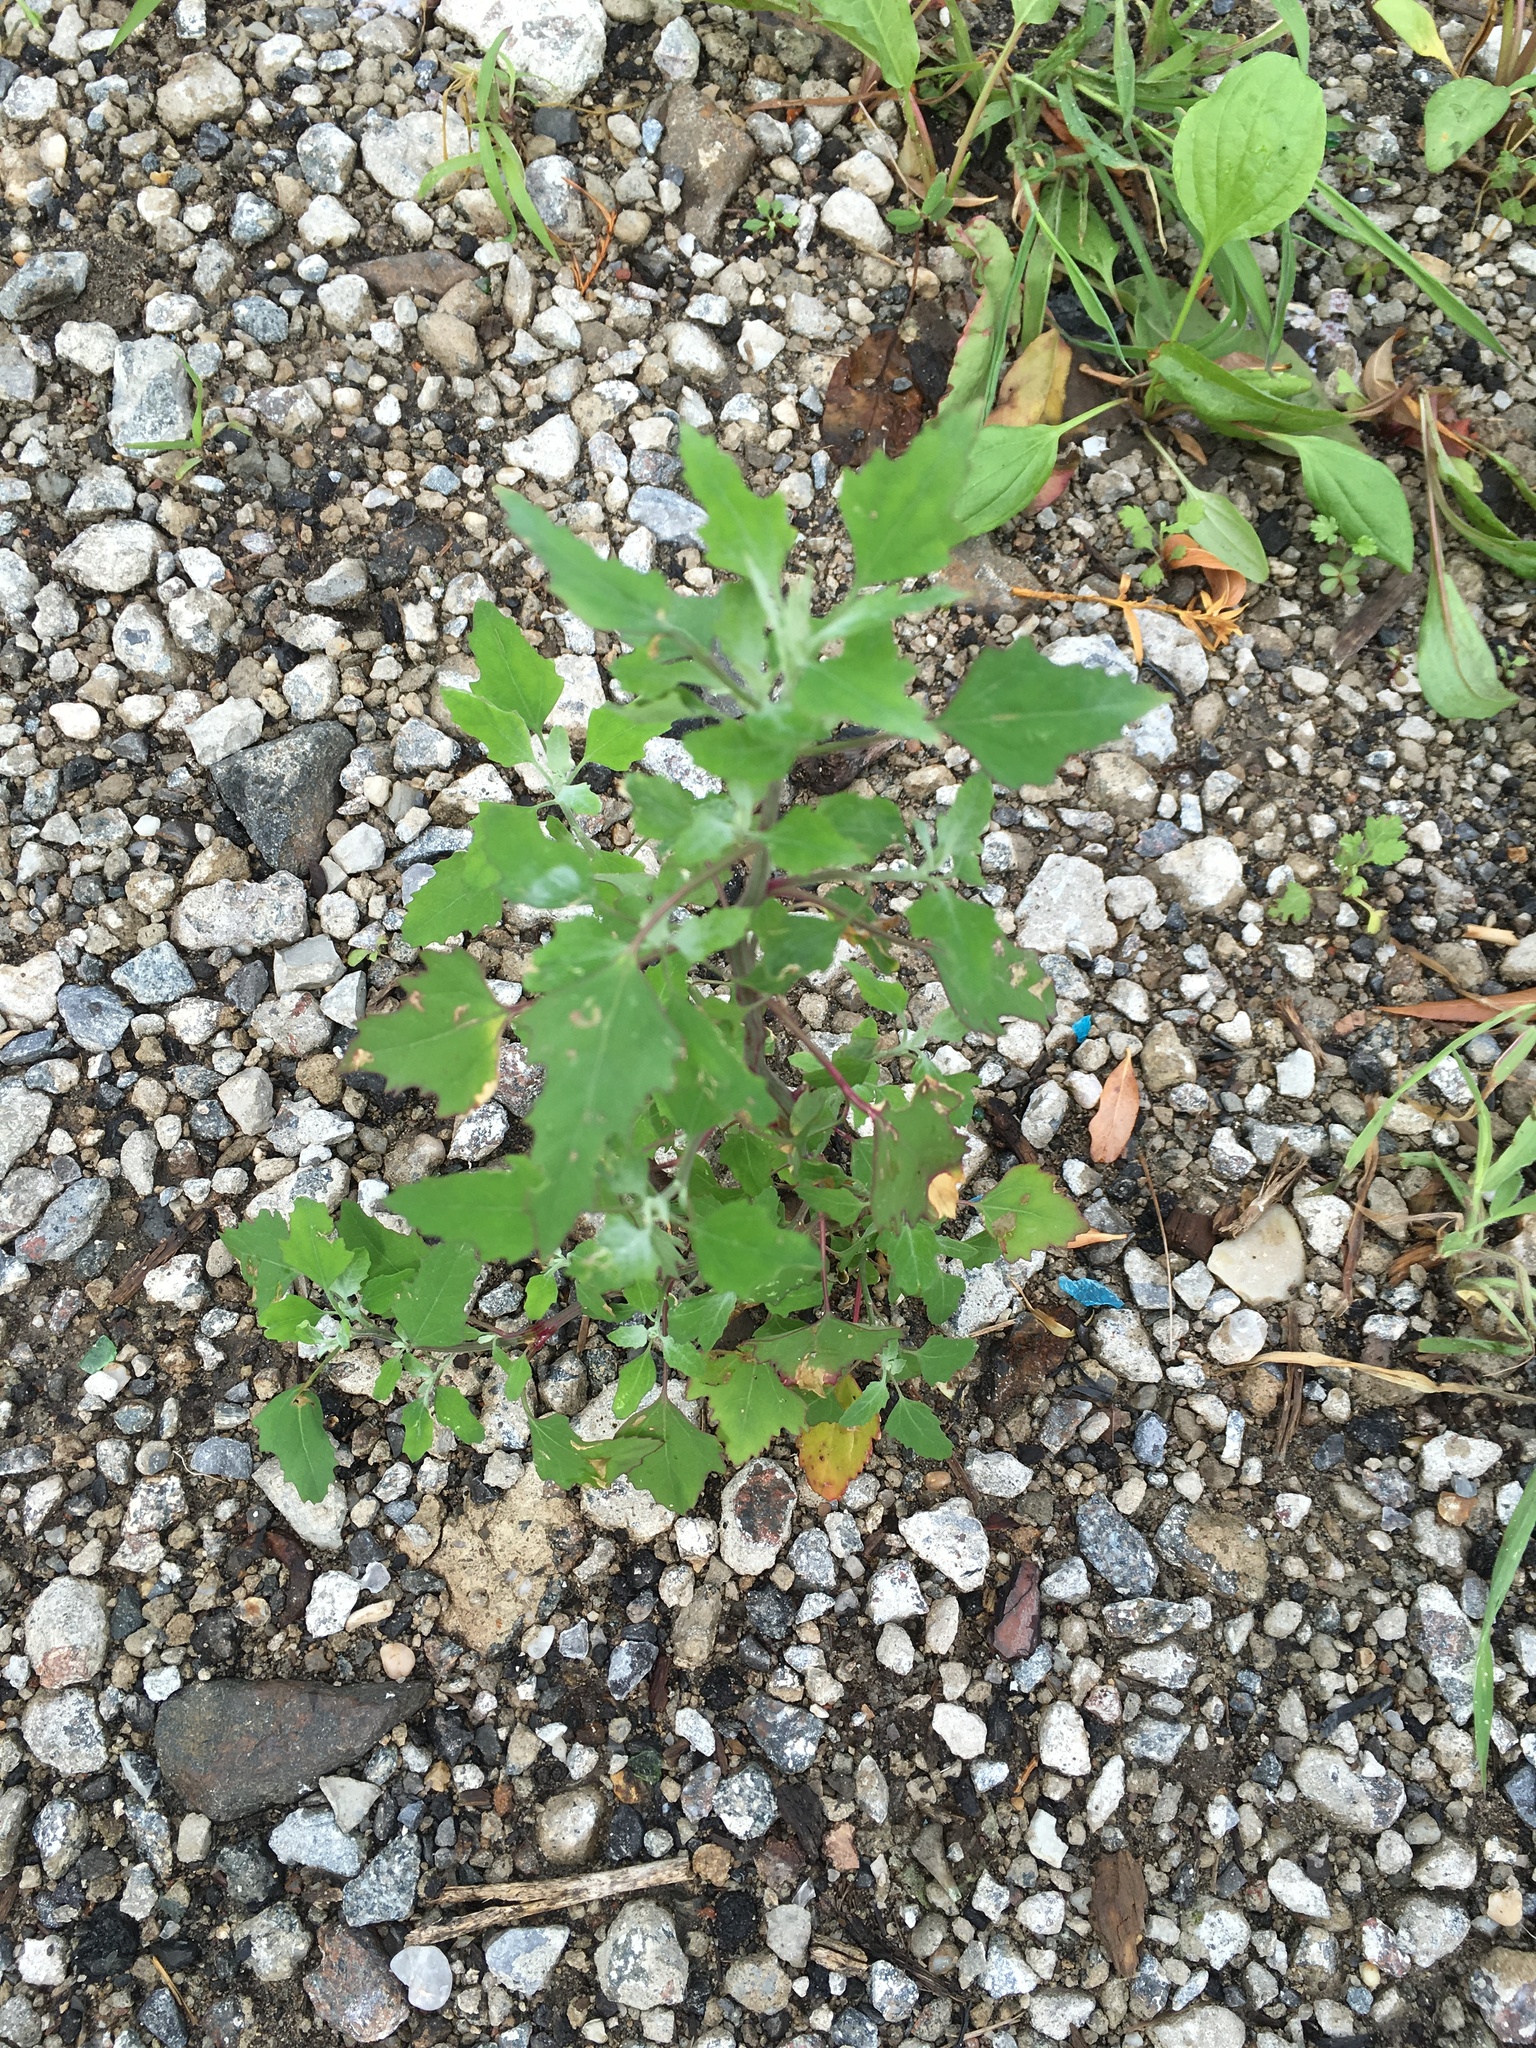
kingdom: Plantae
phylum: Tracheophyta
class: Magnoliopsida
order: Caryophyllales
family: Amaranthaceae
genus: Chenopodium
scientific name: Chenopodium album
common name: Fat-hen
